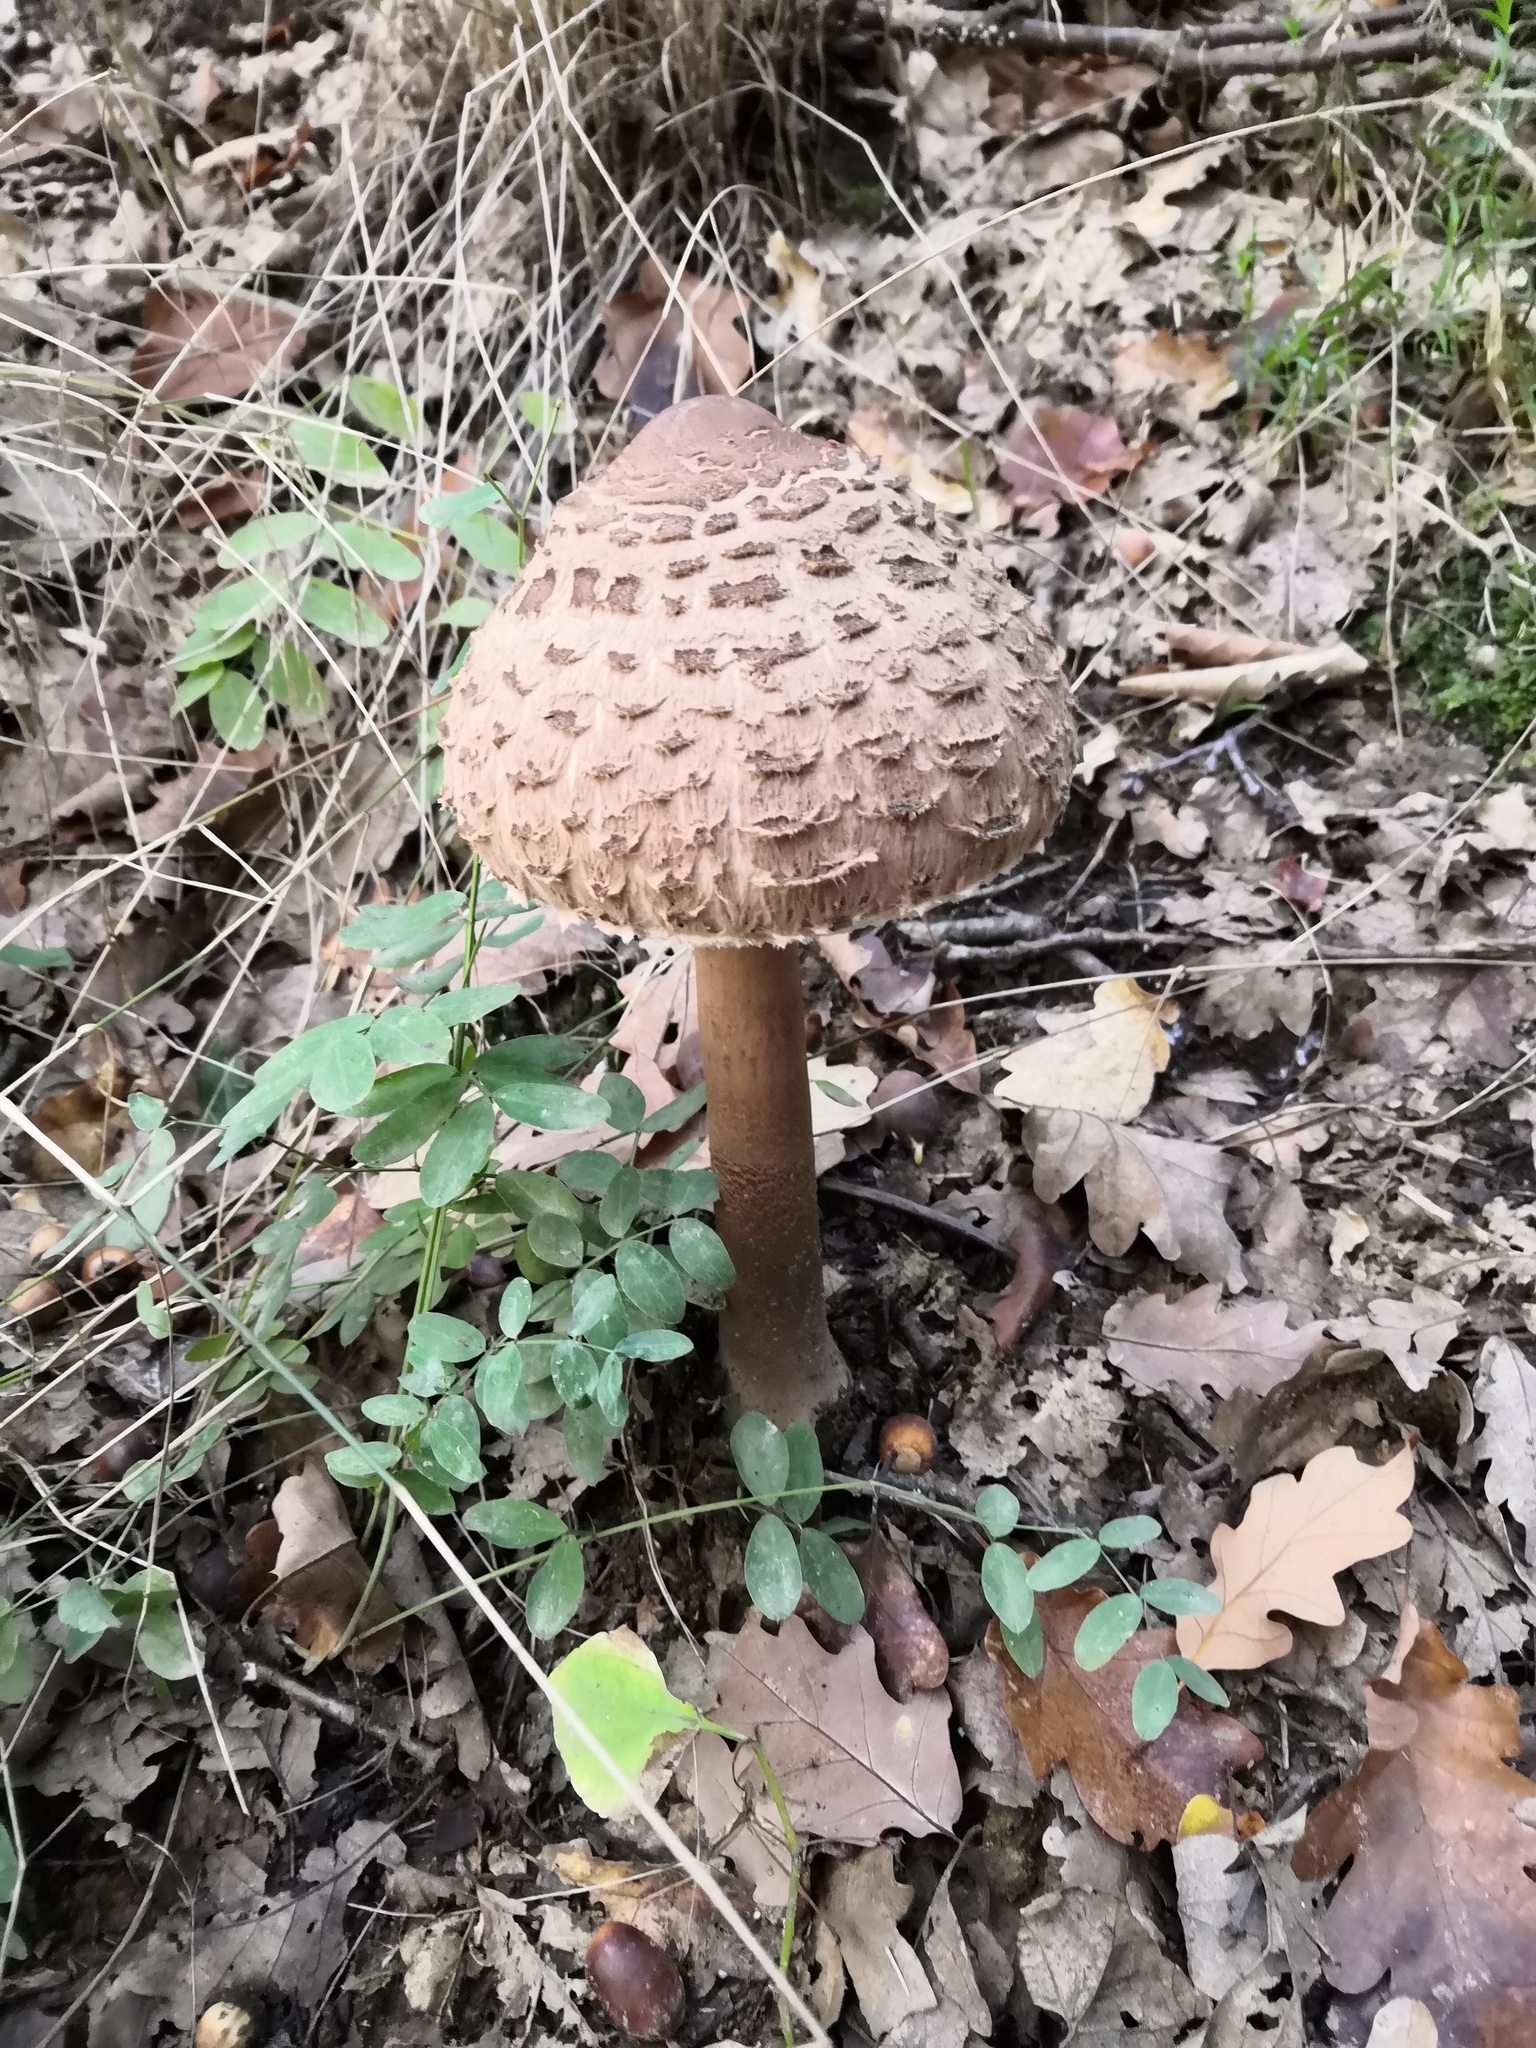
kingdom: Fungi
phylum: Basidiomycota
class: Agaricomycetes
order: Agaricales
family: Agaricaceae
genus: Macrolepiota
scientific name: Macrolepiota procera
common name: Parasol
